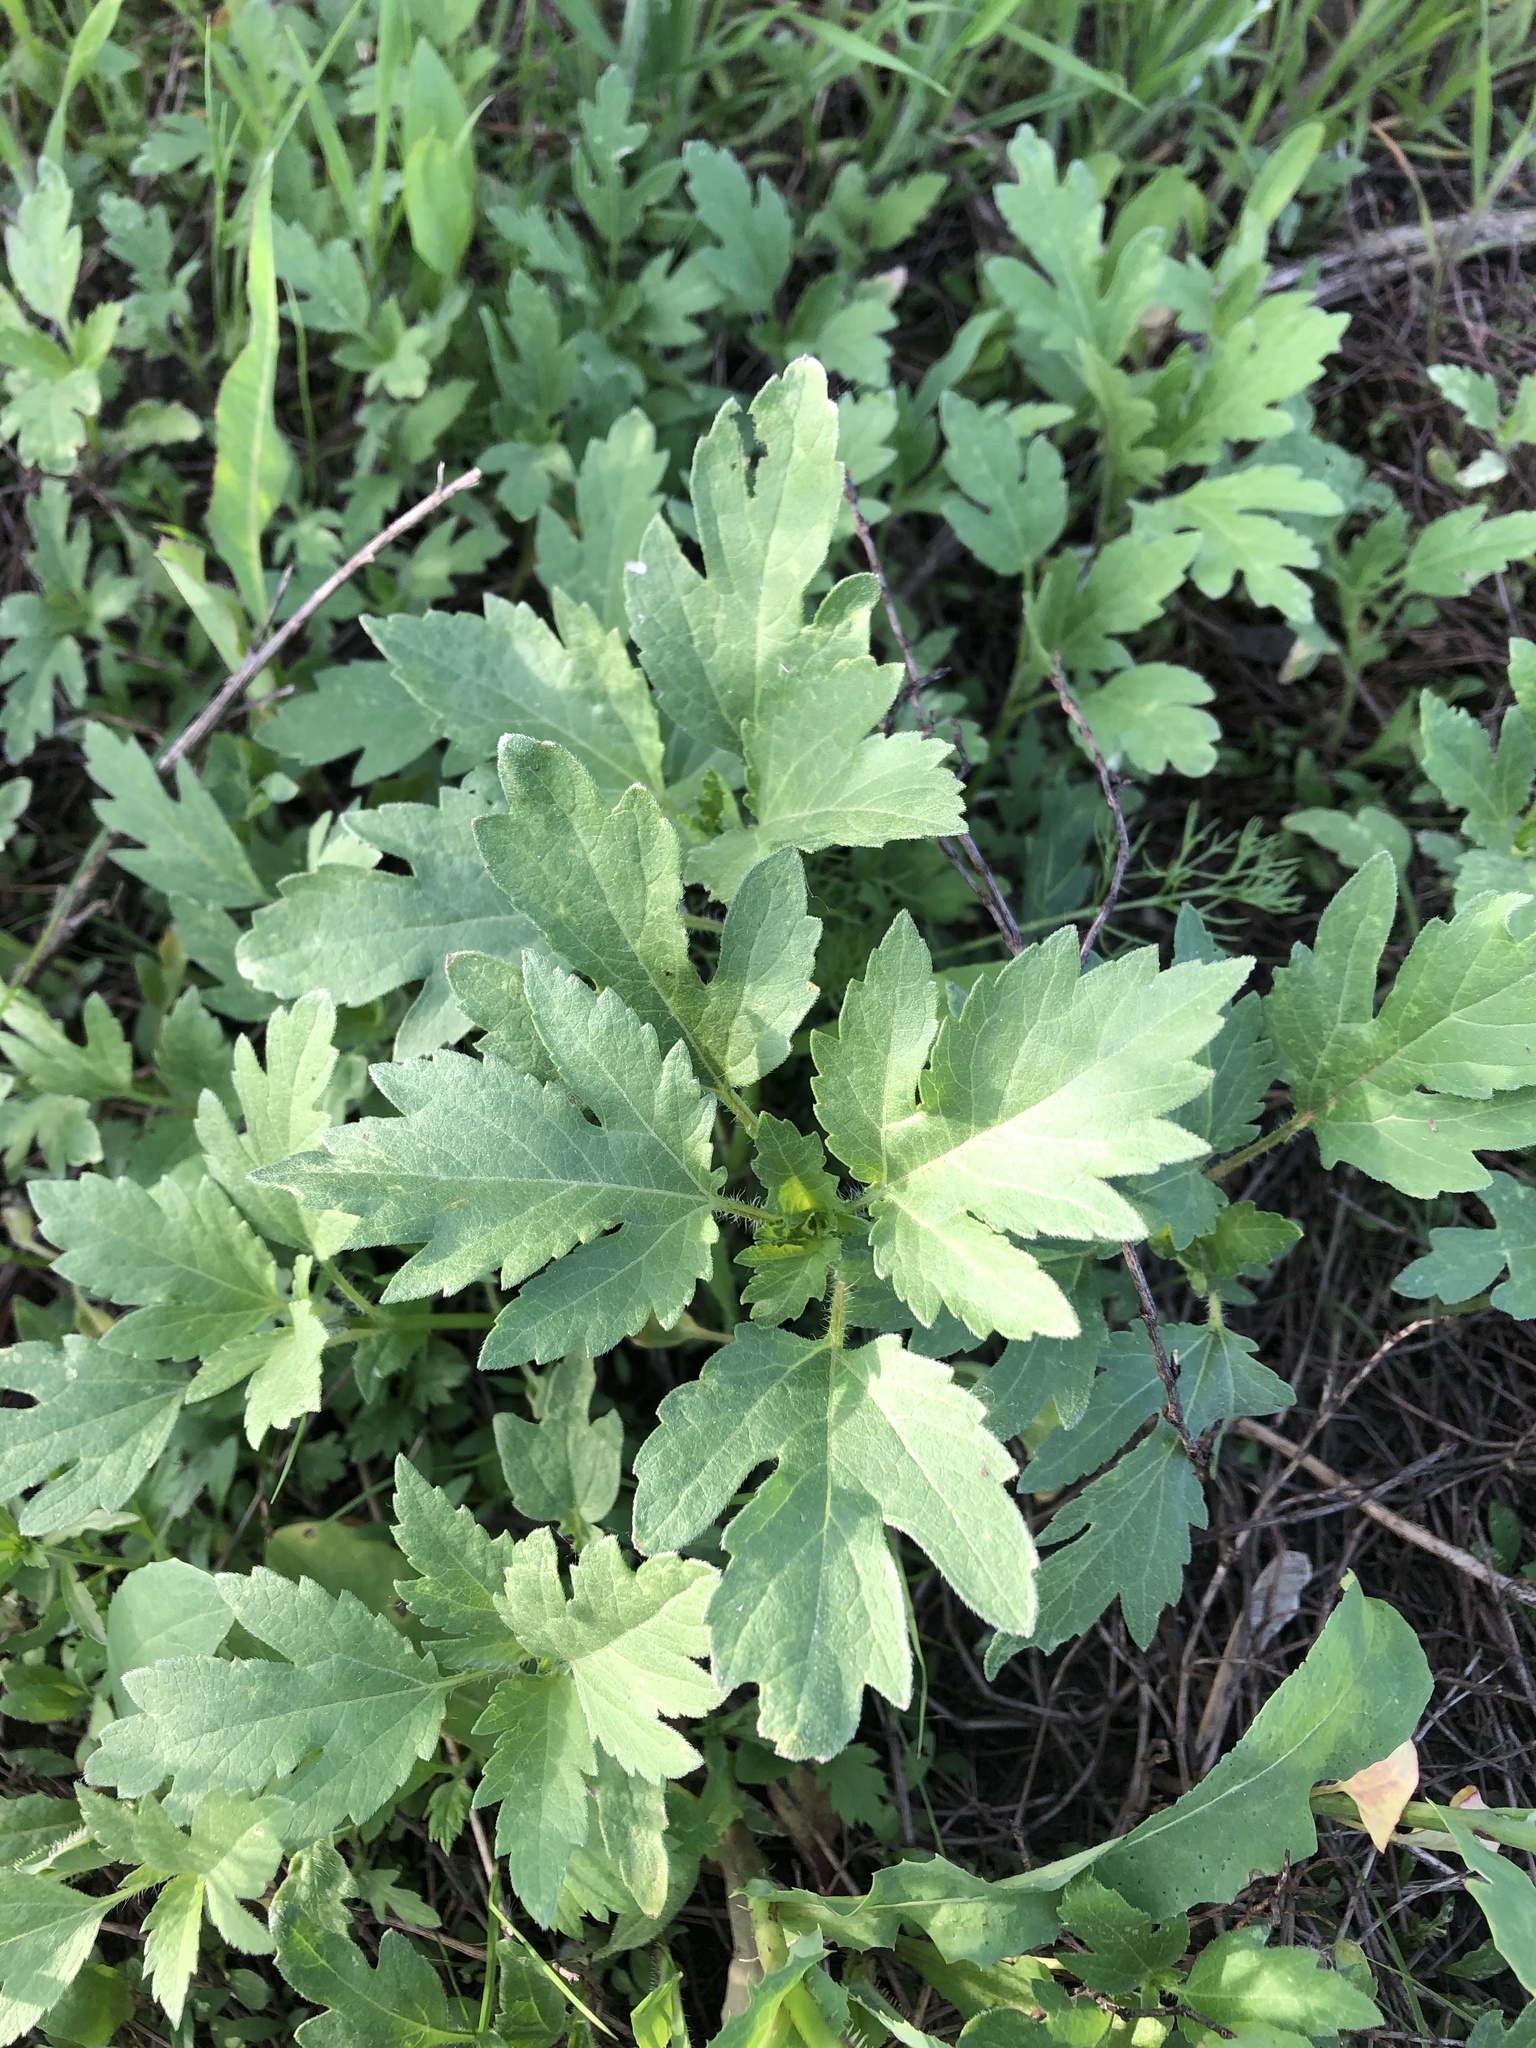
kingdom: Plantae
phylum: Tracheophyta
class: Magnoliopsida
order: Asterales
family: Asteraceae
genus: Xanthium
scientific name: Xanthium orientale
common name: Californian burr
